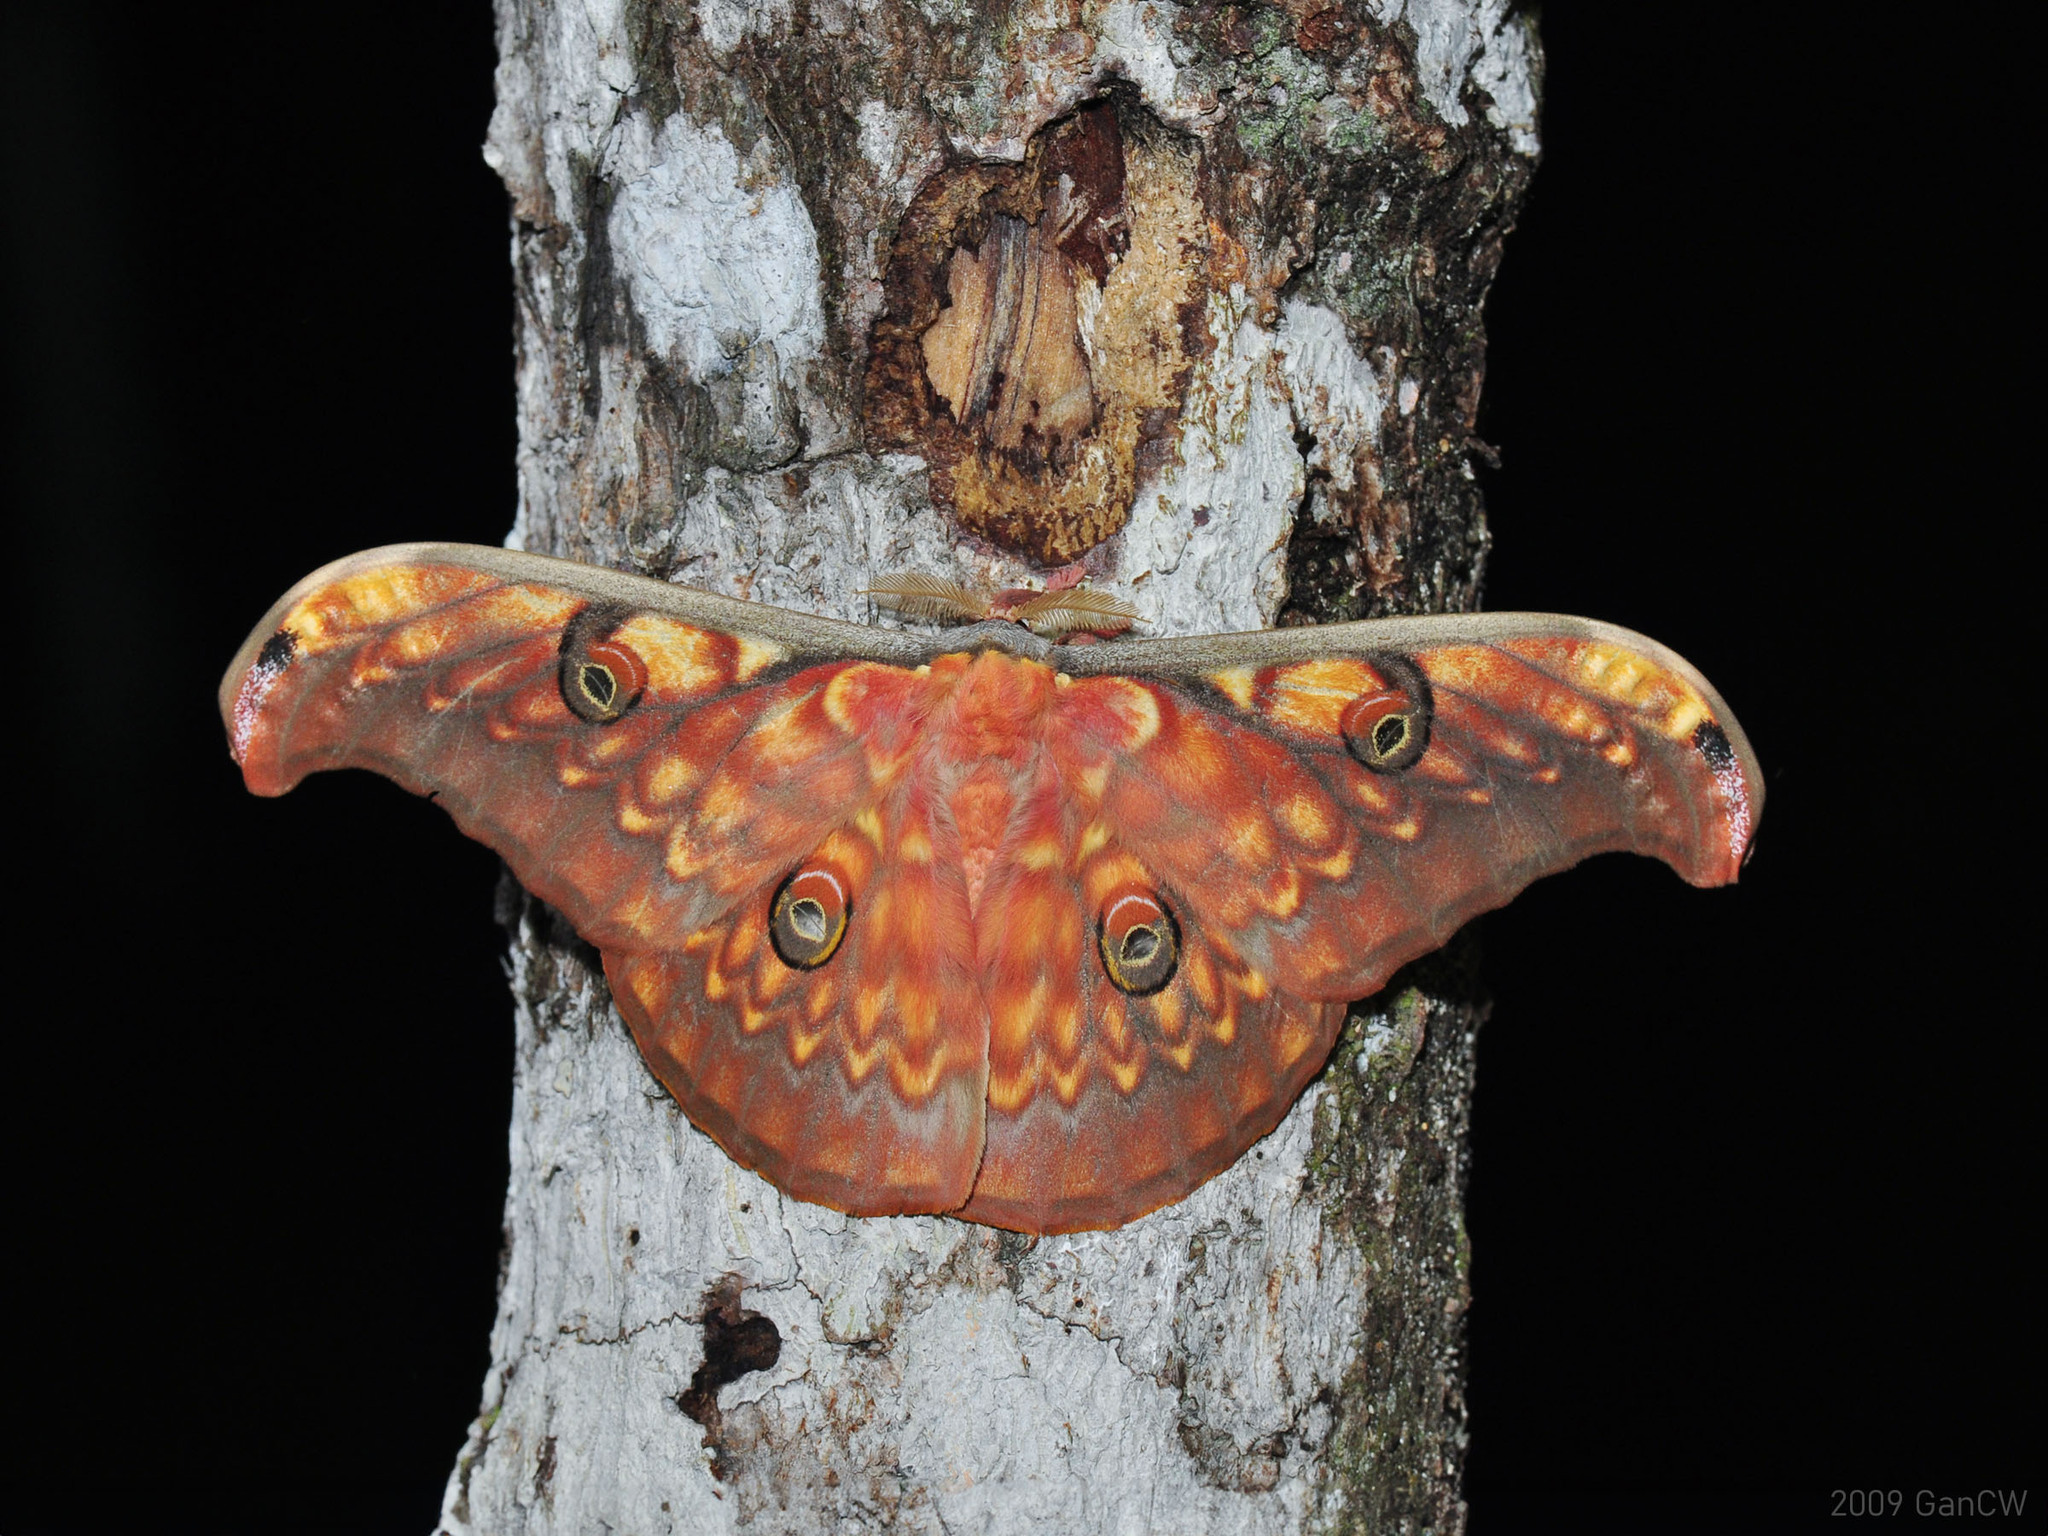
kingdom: Animalia
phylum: Arthropoda
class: Insecta
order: Lepidoptera
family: Saturniidae
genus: Antheraea
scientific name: Antheraea larissa
